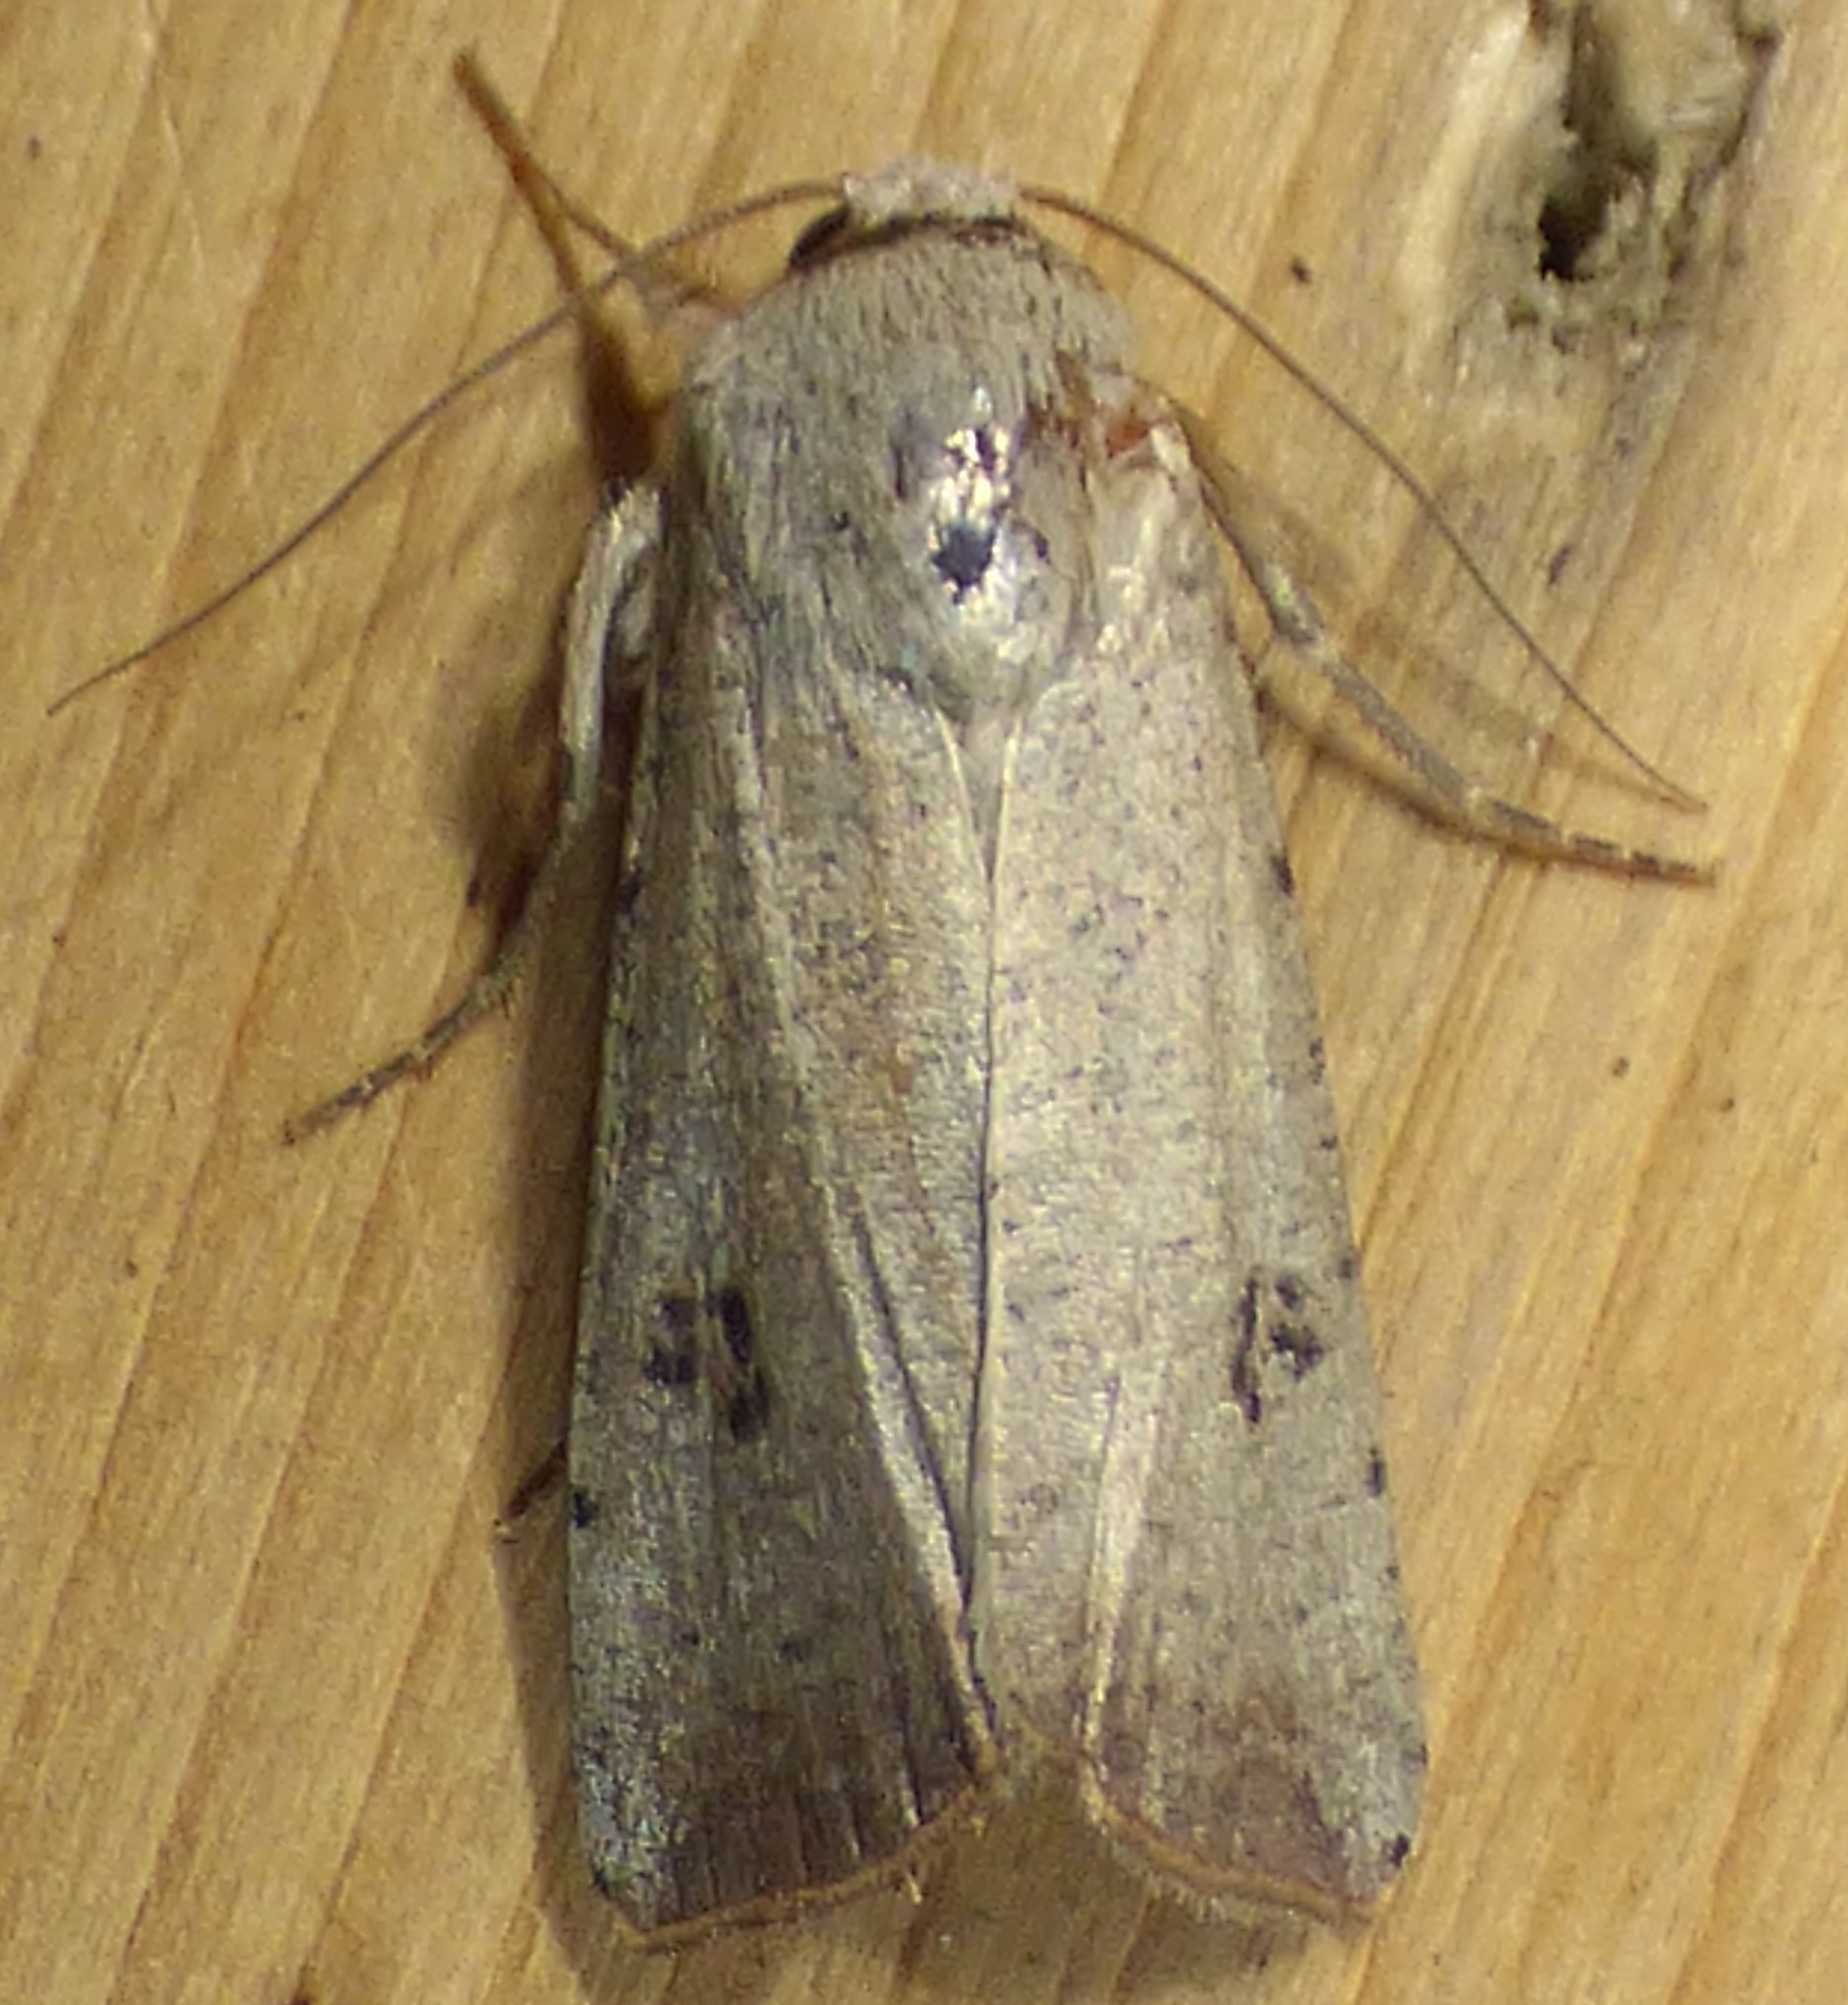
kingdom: Animalia
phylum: Arthropoda
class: Insecta
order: Lepidoptera
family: Noctuidae
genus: Anicla
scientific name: Anicla infecta
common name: Green cutworm
